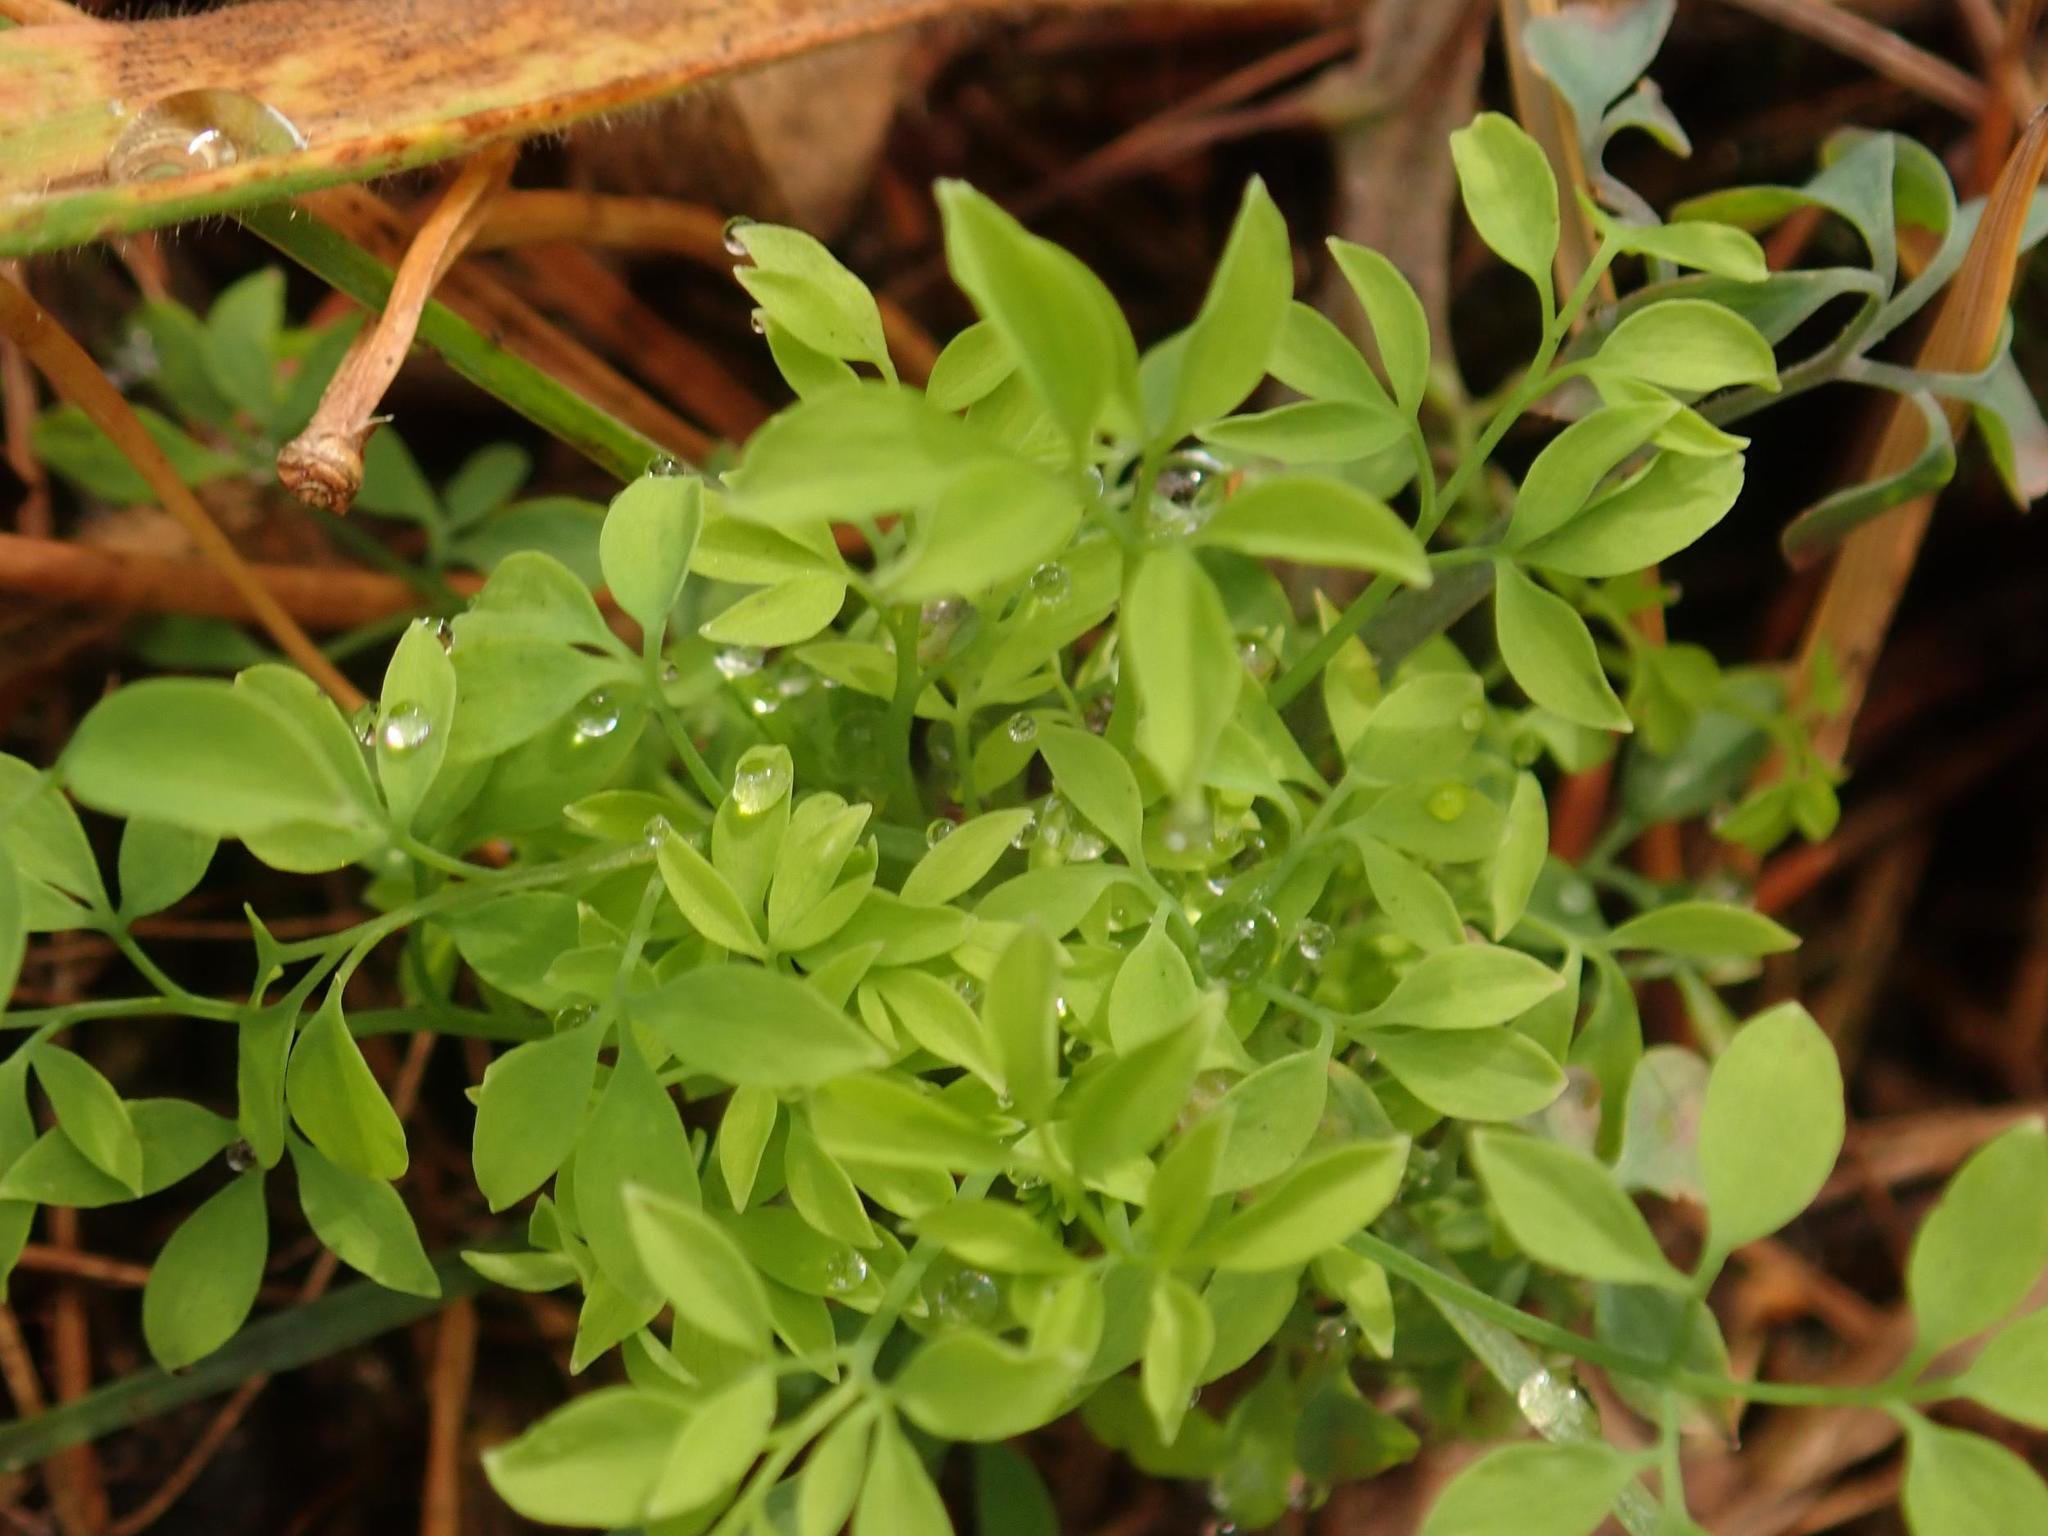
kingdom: Plantae
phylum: Tracheophyta
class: Magnoliopsida
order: Ranunculales
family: Papaveraceae
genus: Ceratocapnos
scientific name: Ceratocapnos claviculata
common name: Climbing corydalis
